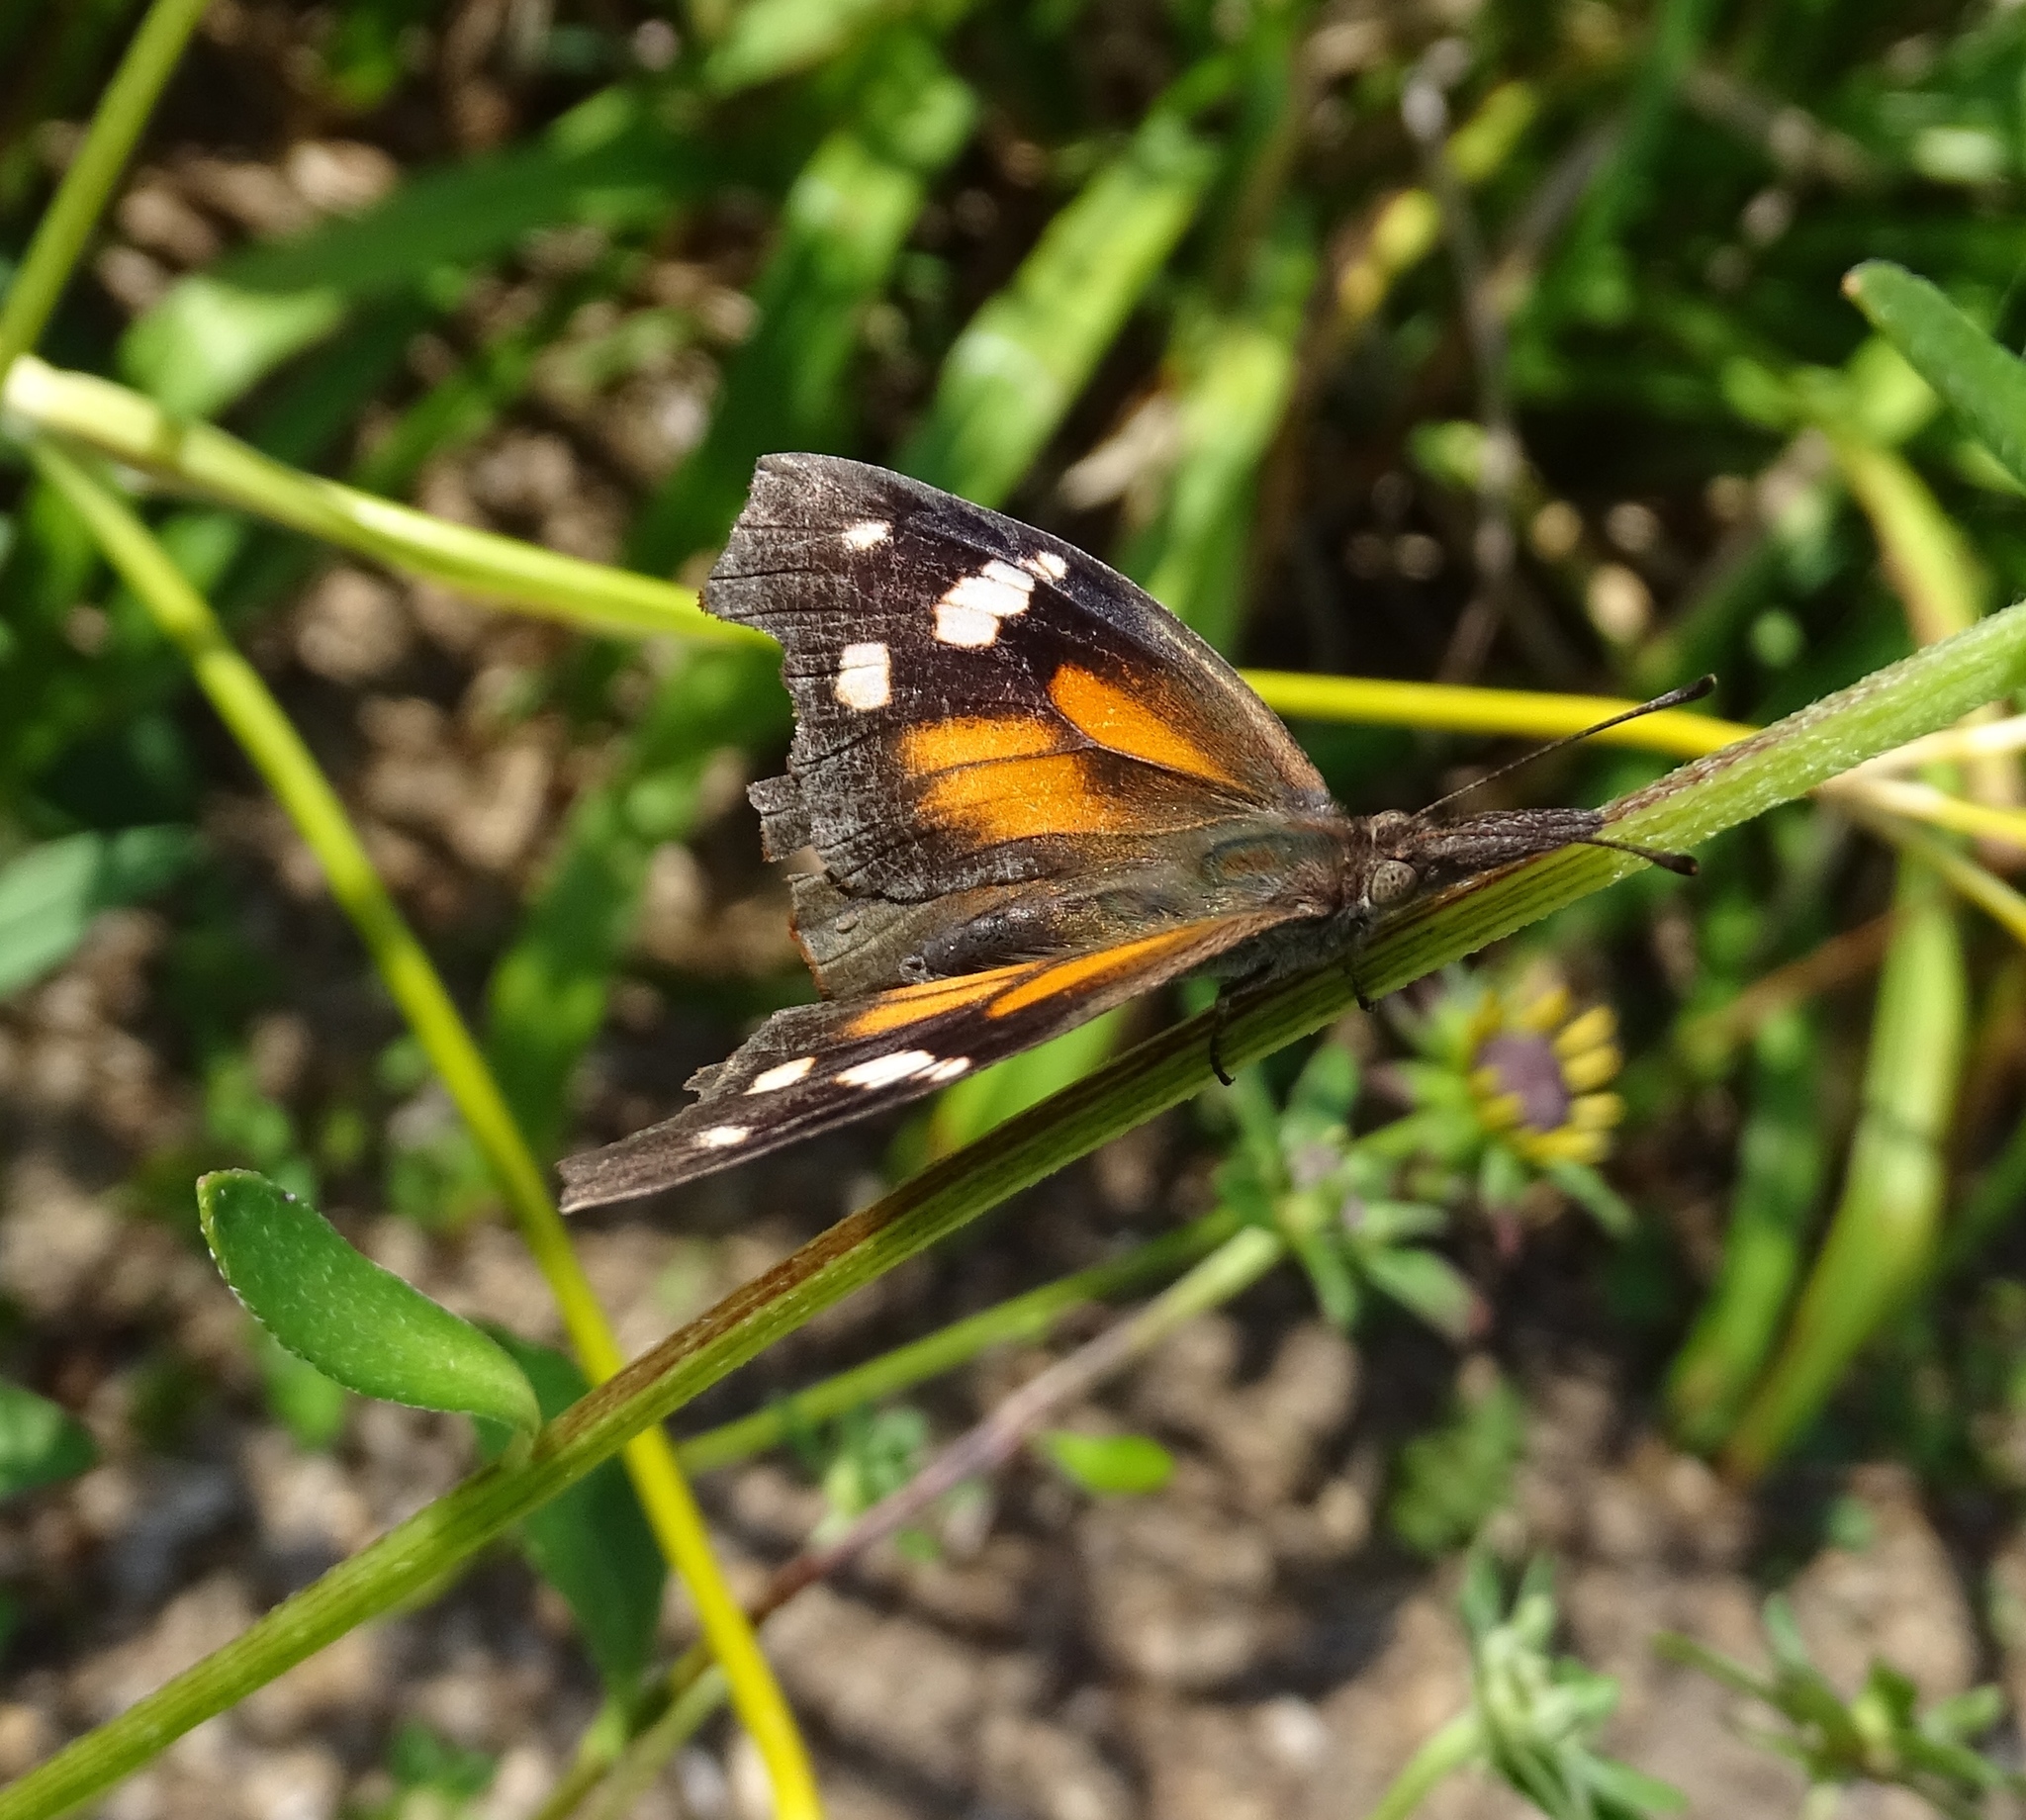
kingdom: Animalia
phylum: Arthropoda
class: Insecta
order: Lepidoptera
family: Nymphalidae
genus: Libytheana
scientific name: Libytheana carinenta
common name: American snout
